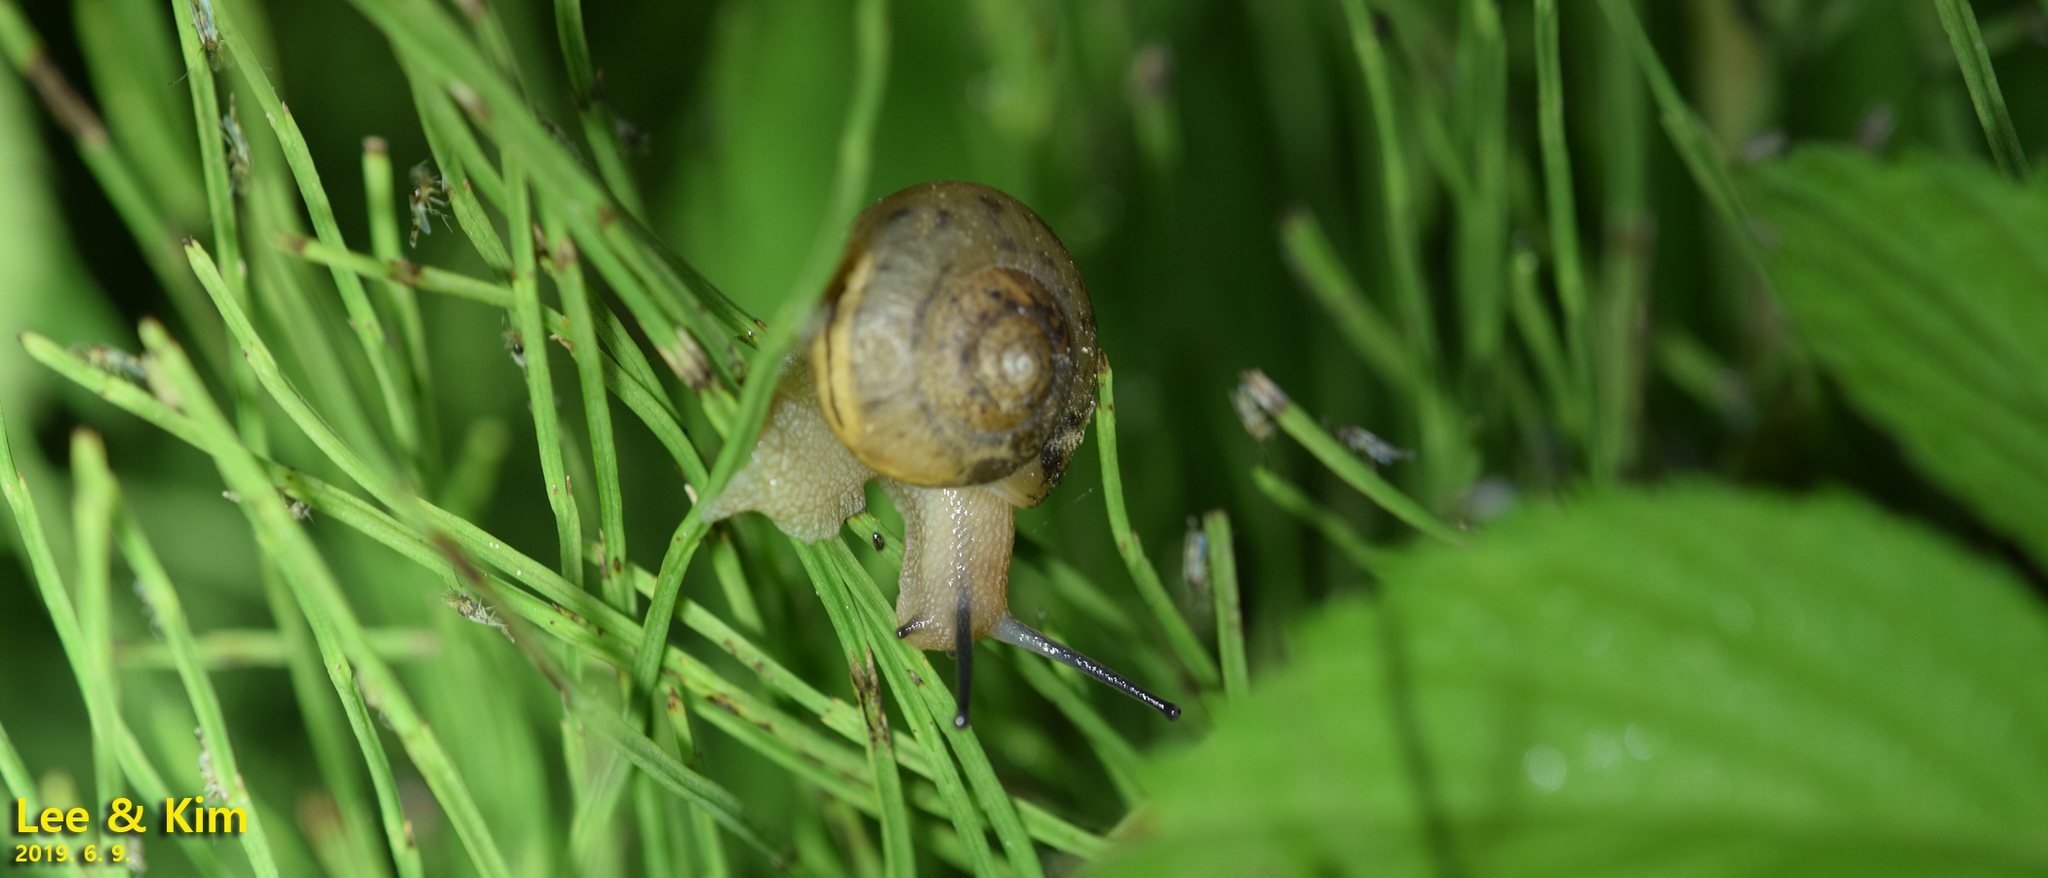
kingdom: Animalia
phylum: Mollusca
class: Gastropoda
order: Stylommatophora
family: Camaenidae
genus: Acusta
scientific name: Acusta redfieldi
